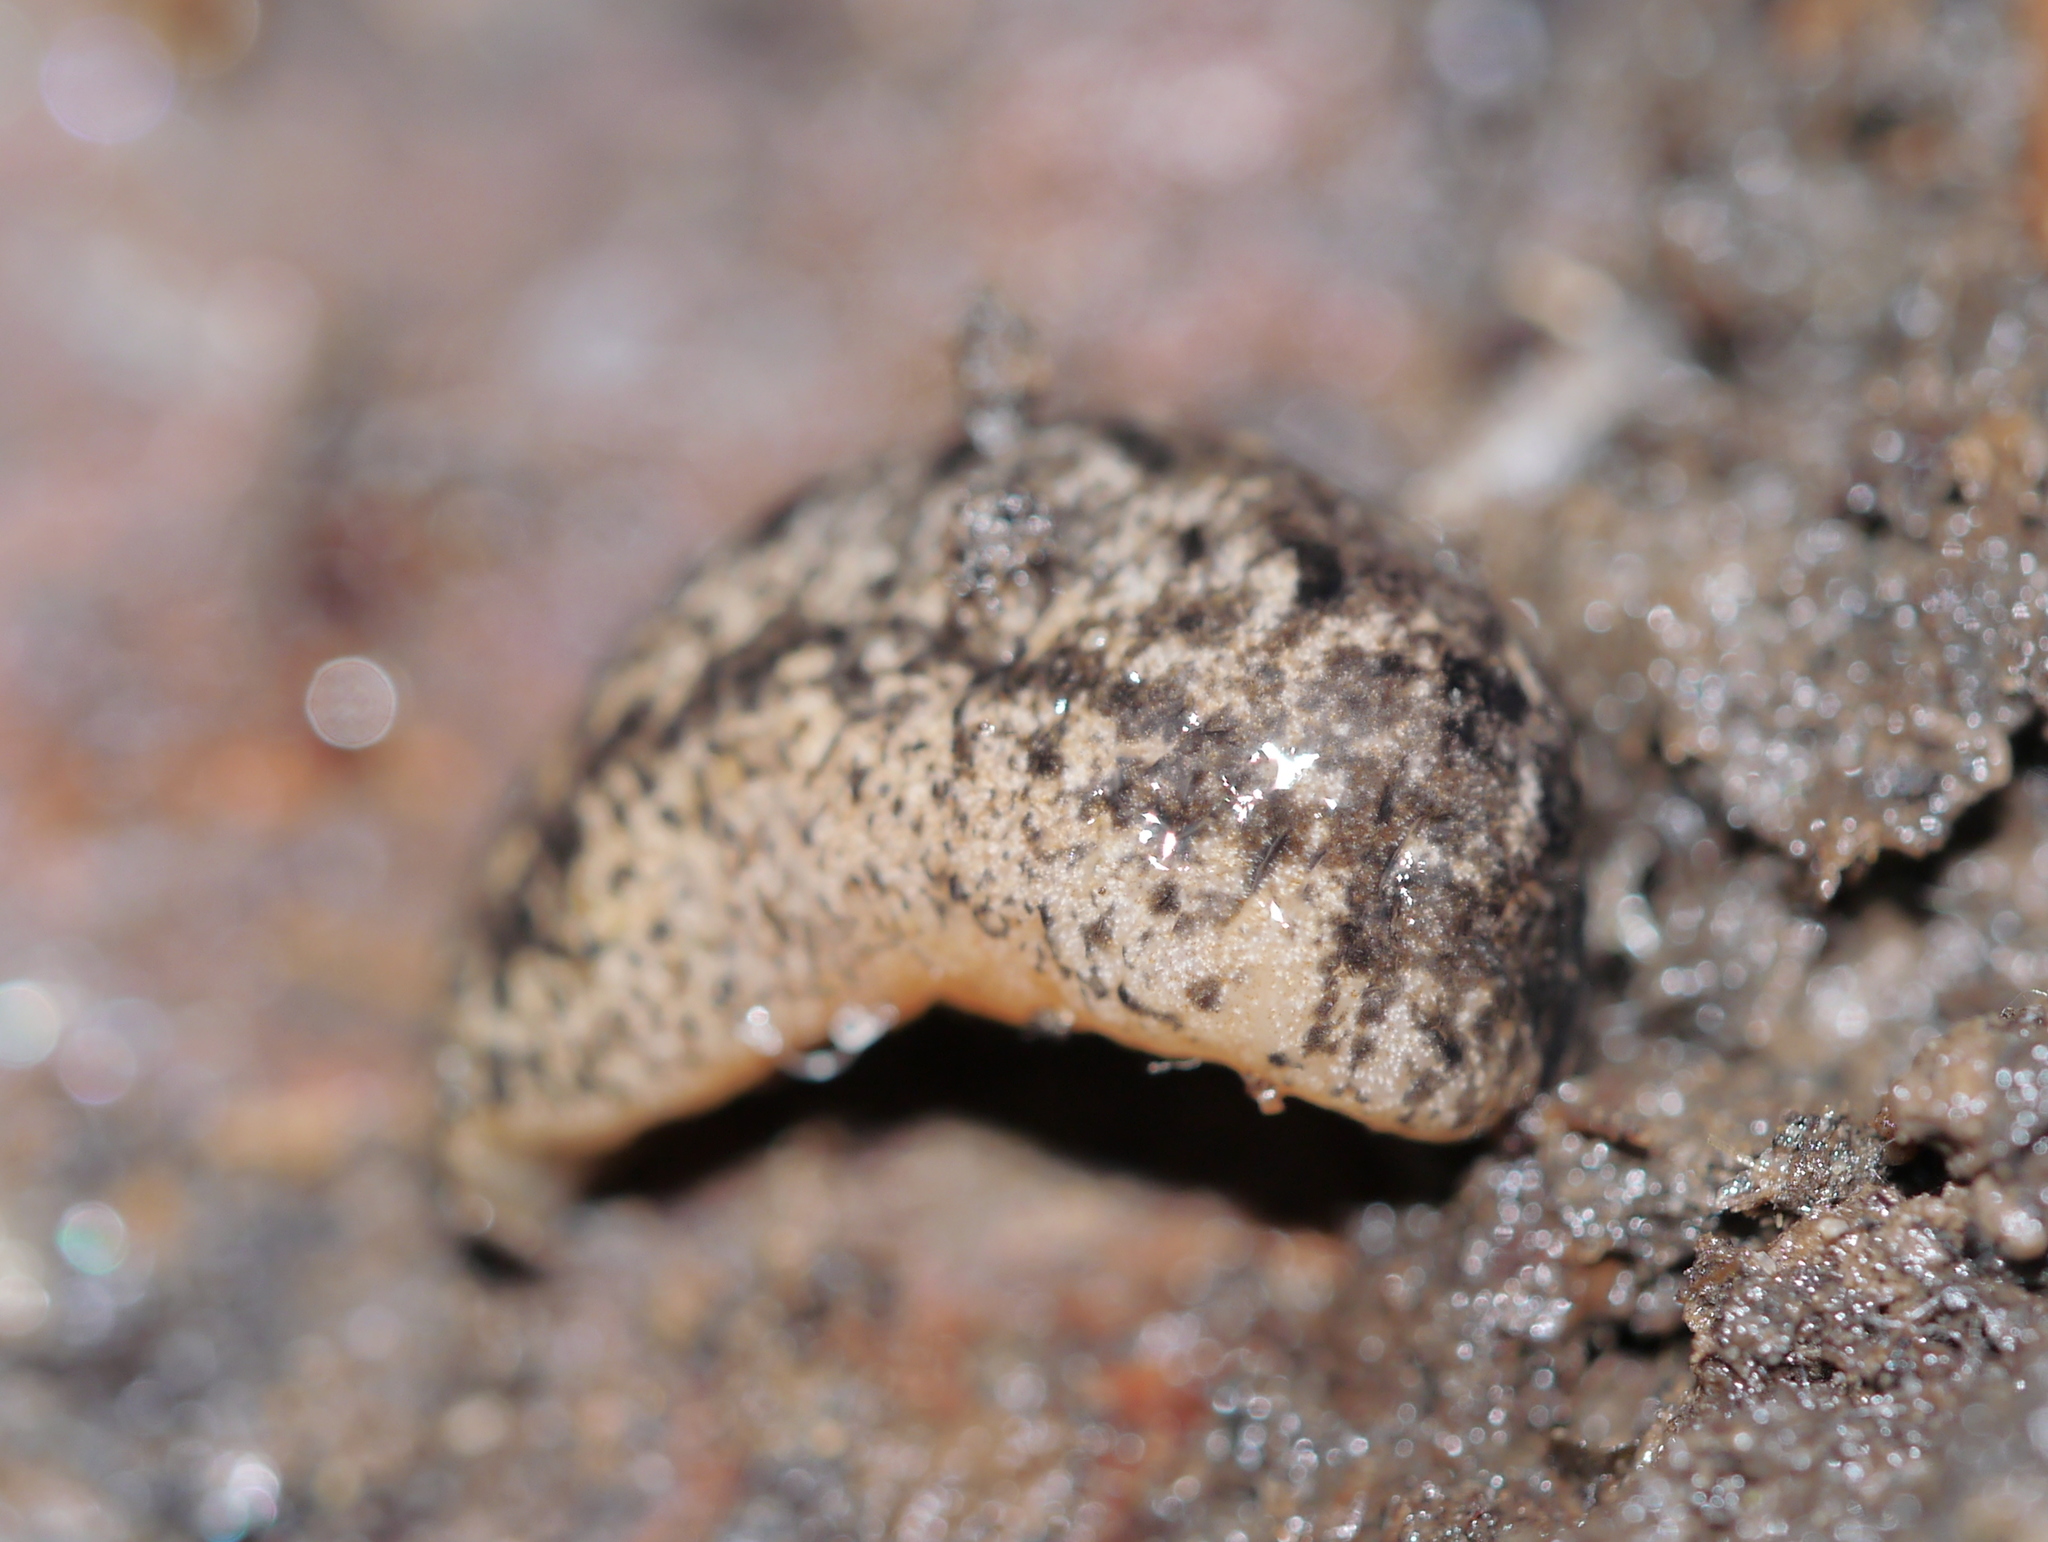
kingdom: Animalia
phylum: Mollusca
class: Gastropoda
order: Stylommatophora
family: Philomycidae
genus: Philomycus
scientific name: Philomycus carolinianus
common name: Carolina mantleslug
